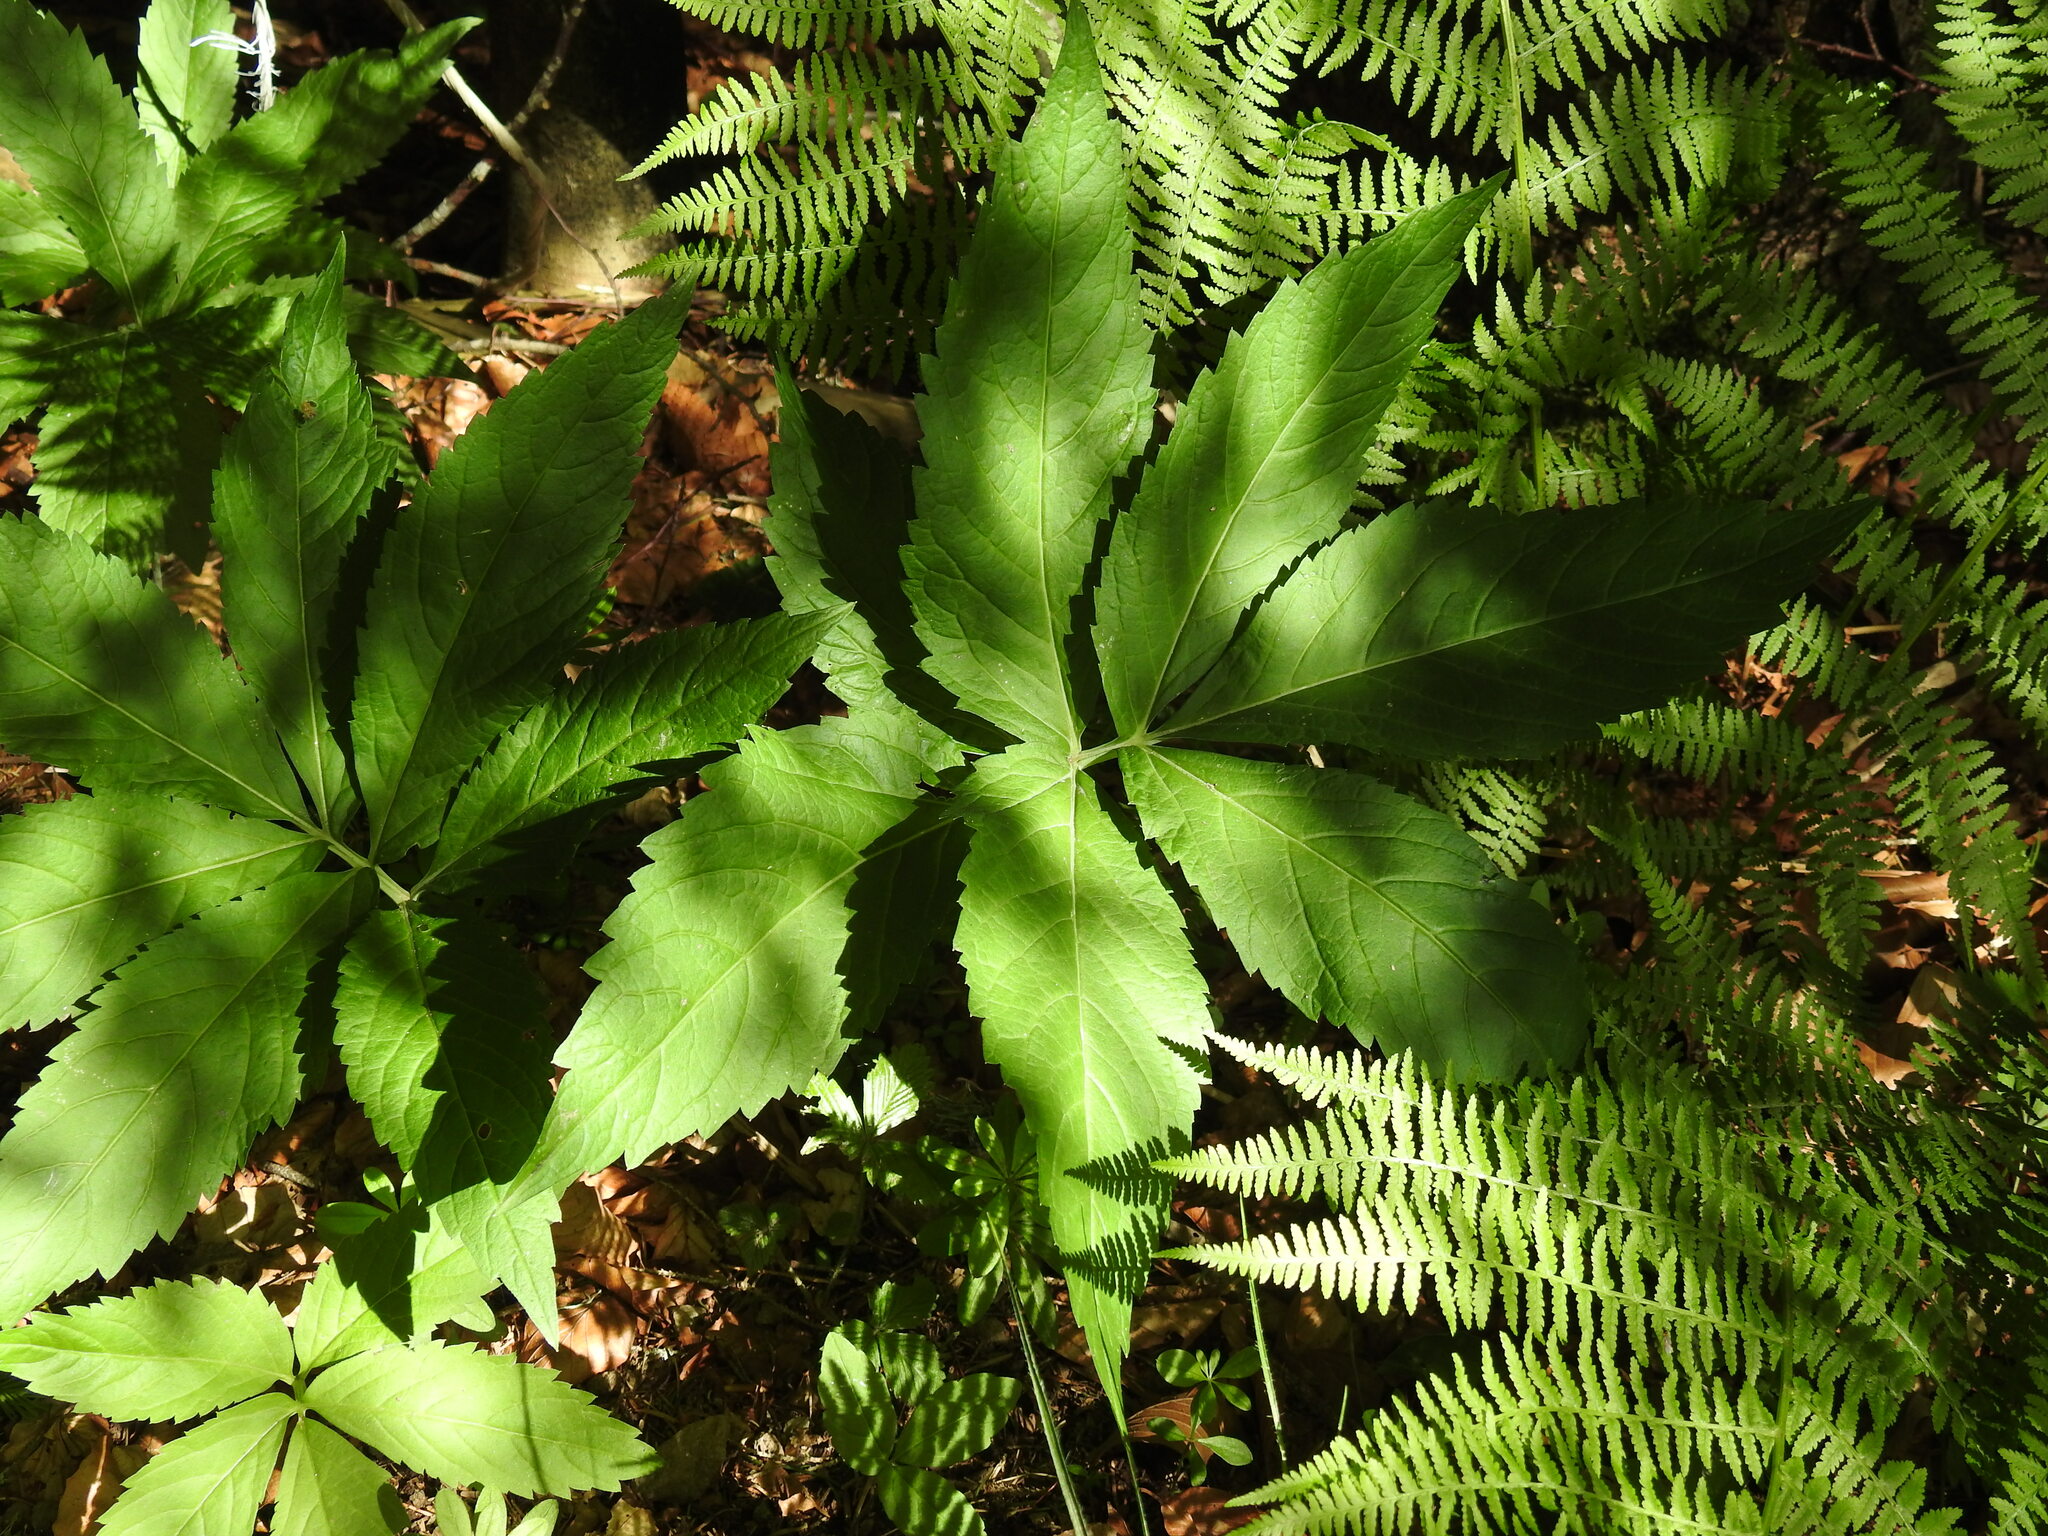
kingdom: Plantae
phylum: Tracheophyta
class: Magnoliopsida
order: Brassicales
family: Brassicaceae
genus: Cardamine
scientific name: Cardamine heptaphylla
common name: Pinnate coralroot
